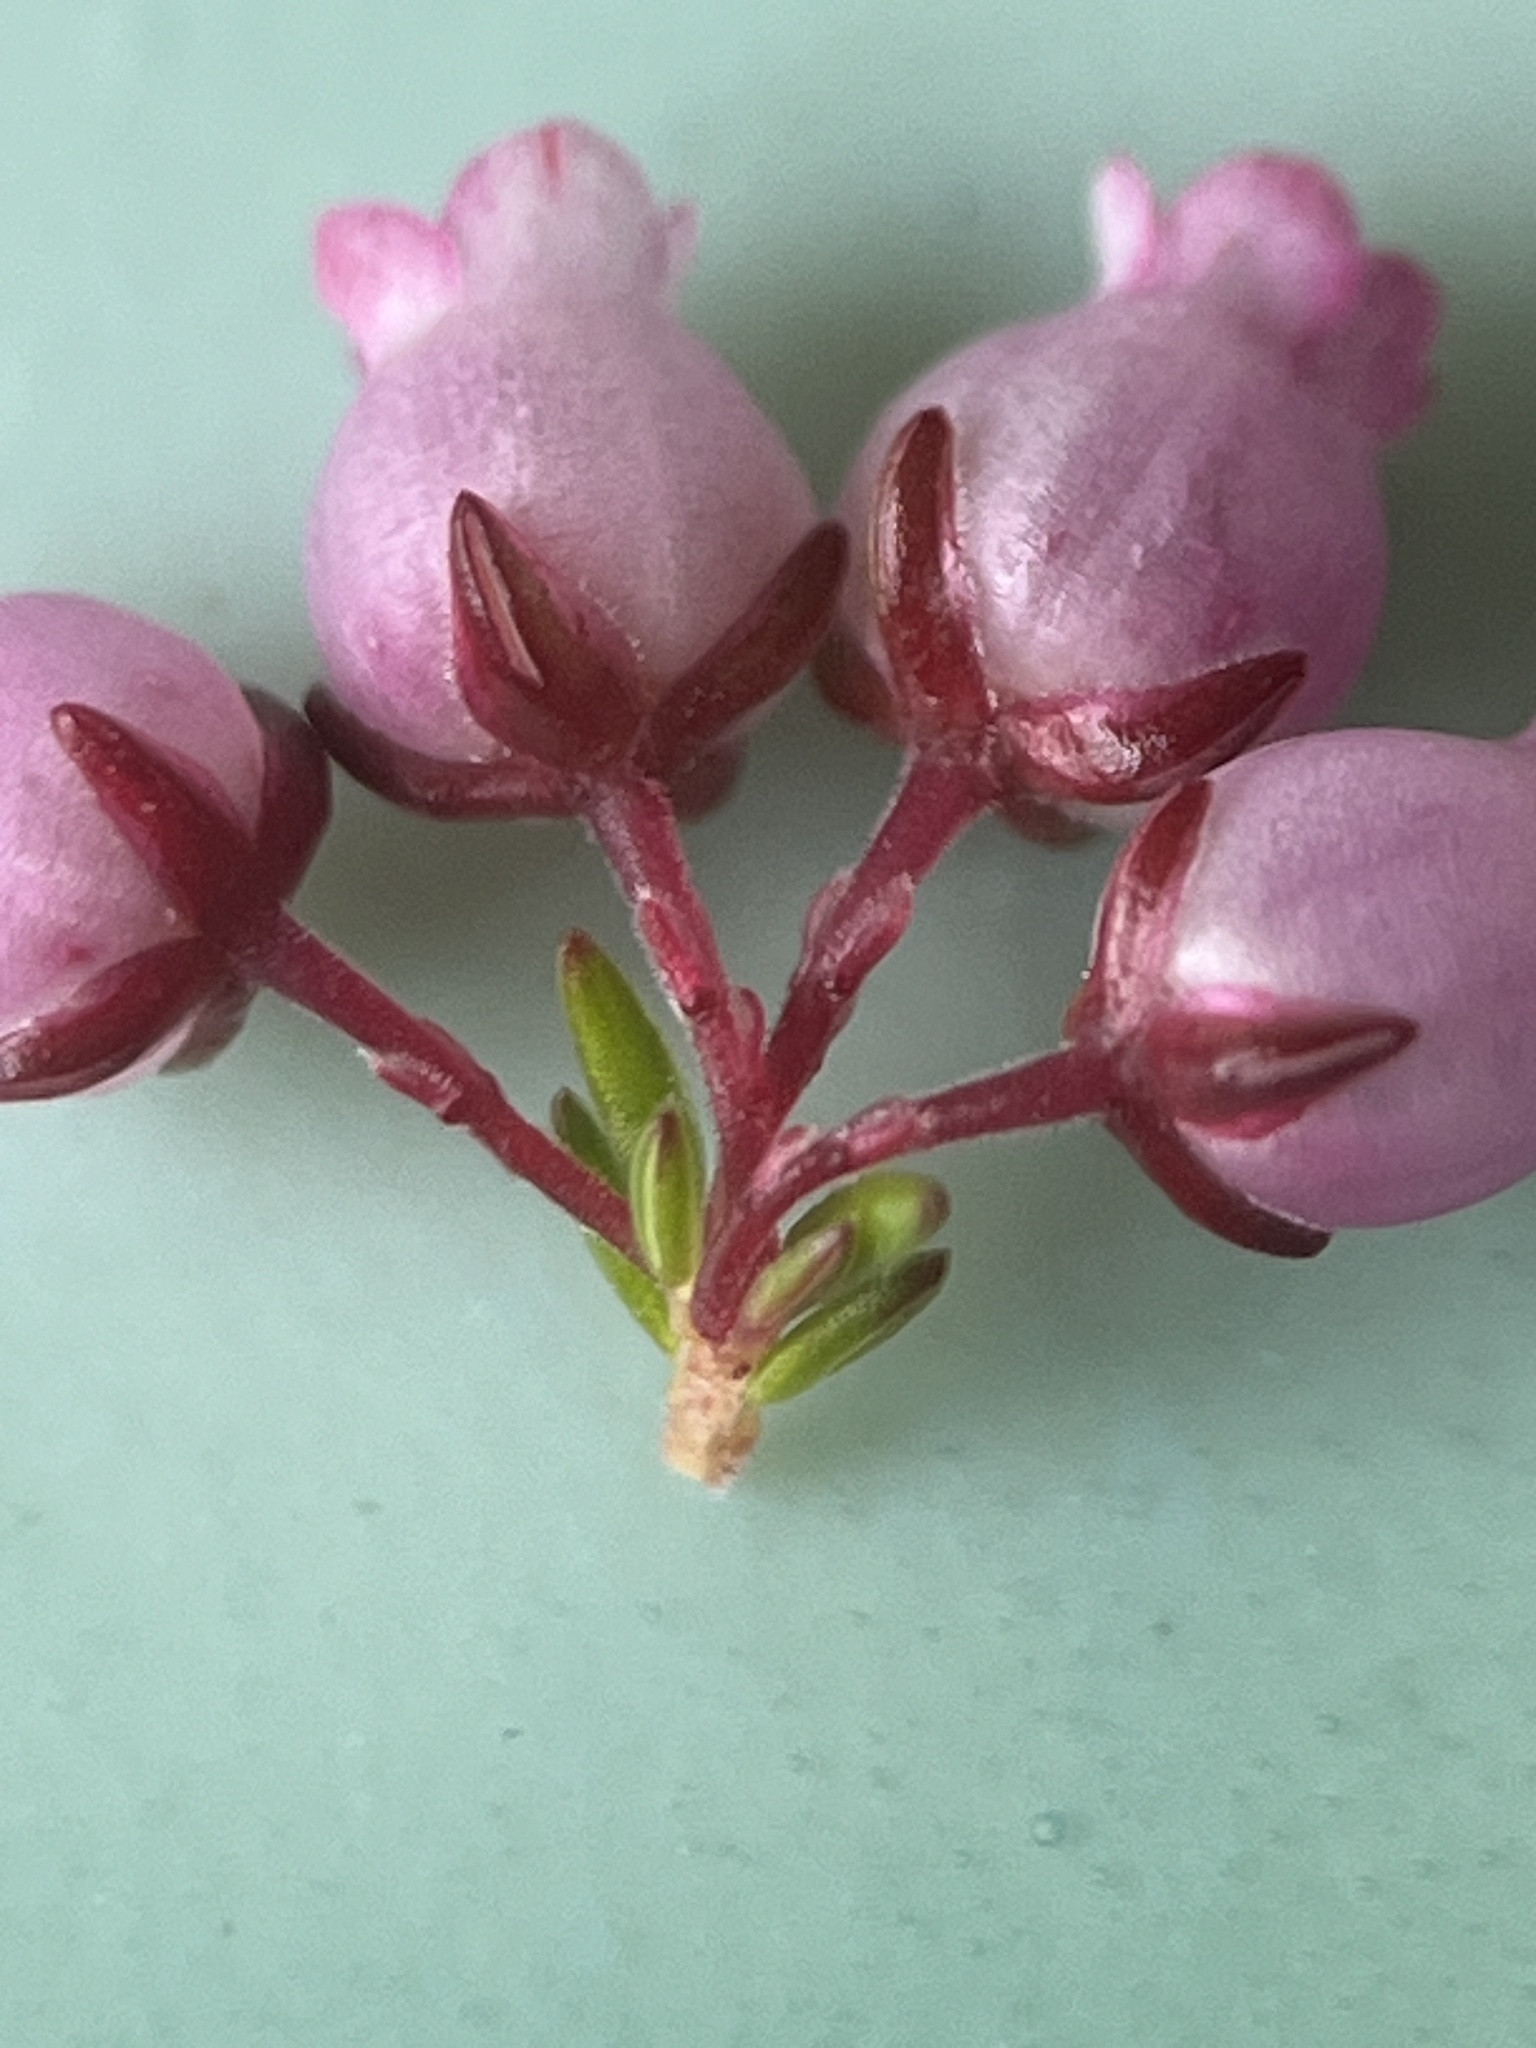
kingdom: Plantae
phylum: Tracheophyta
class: Magnoliopsida
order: Ericales
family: Ericaceae
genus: Erica
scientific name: Erica tenella
